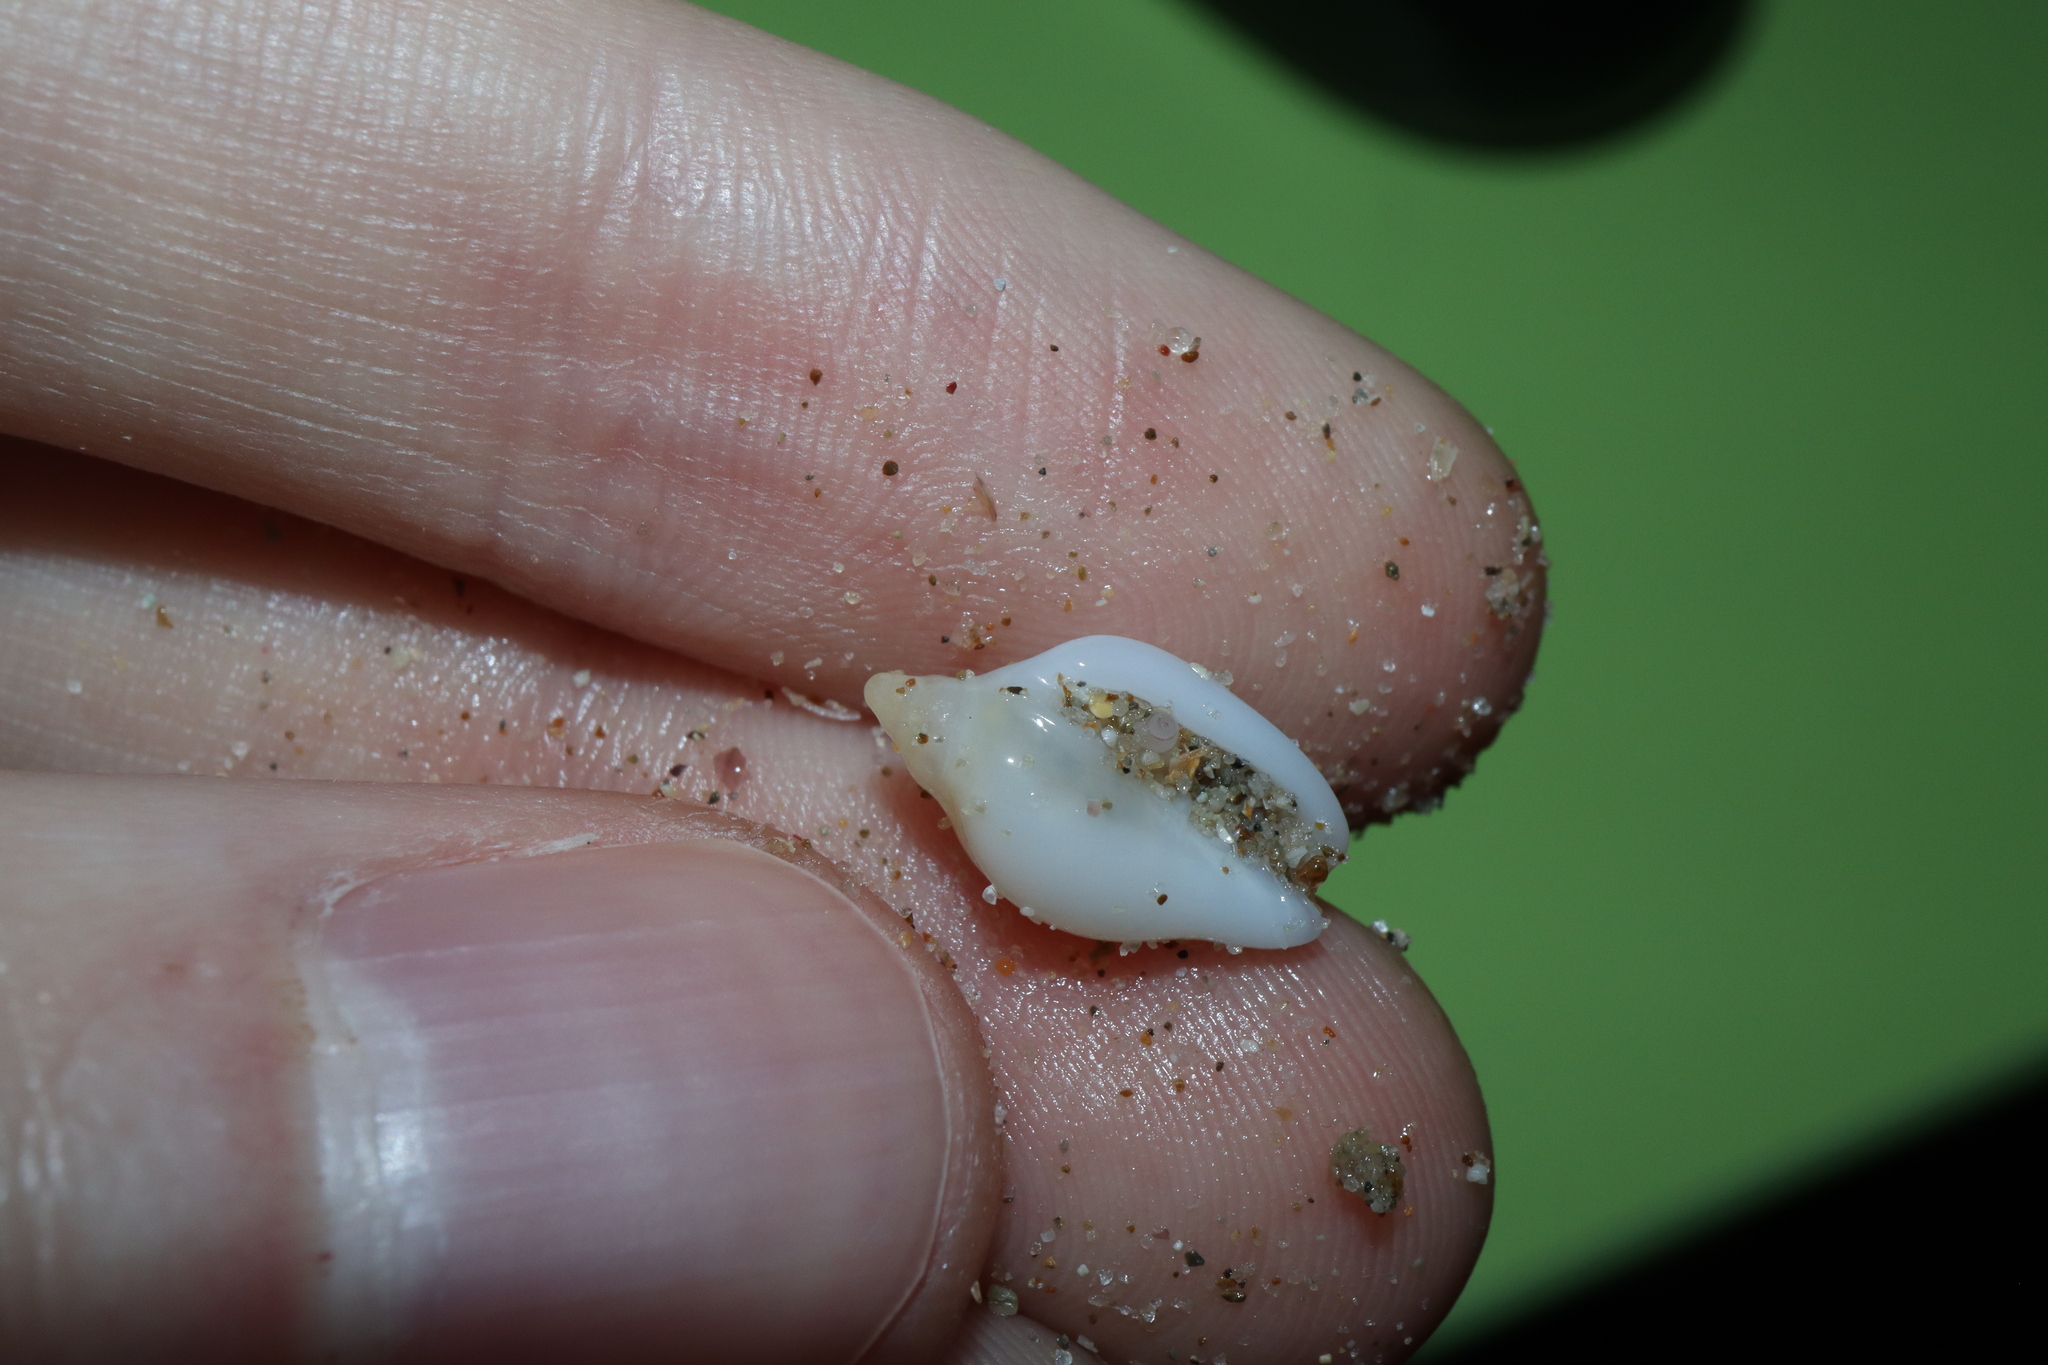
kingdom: Animalia
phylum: Mollusca
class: Gastropoda
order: Neogastropoda
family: Marginellidae
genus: Austroginella
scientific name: Austroginella muscaria
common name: Fly marginella
